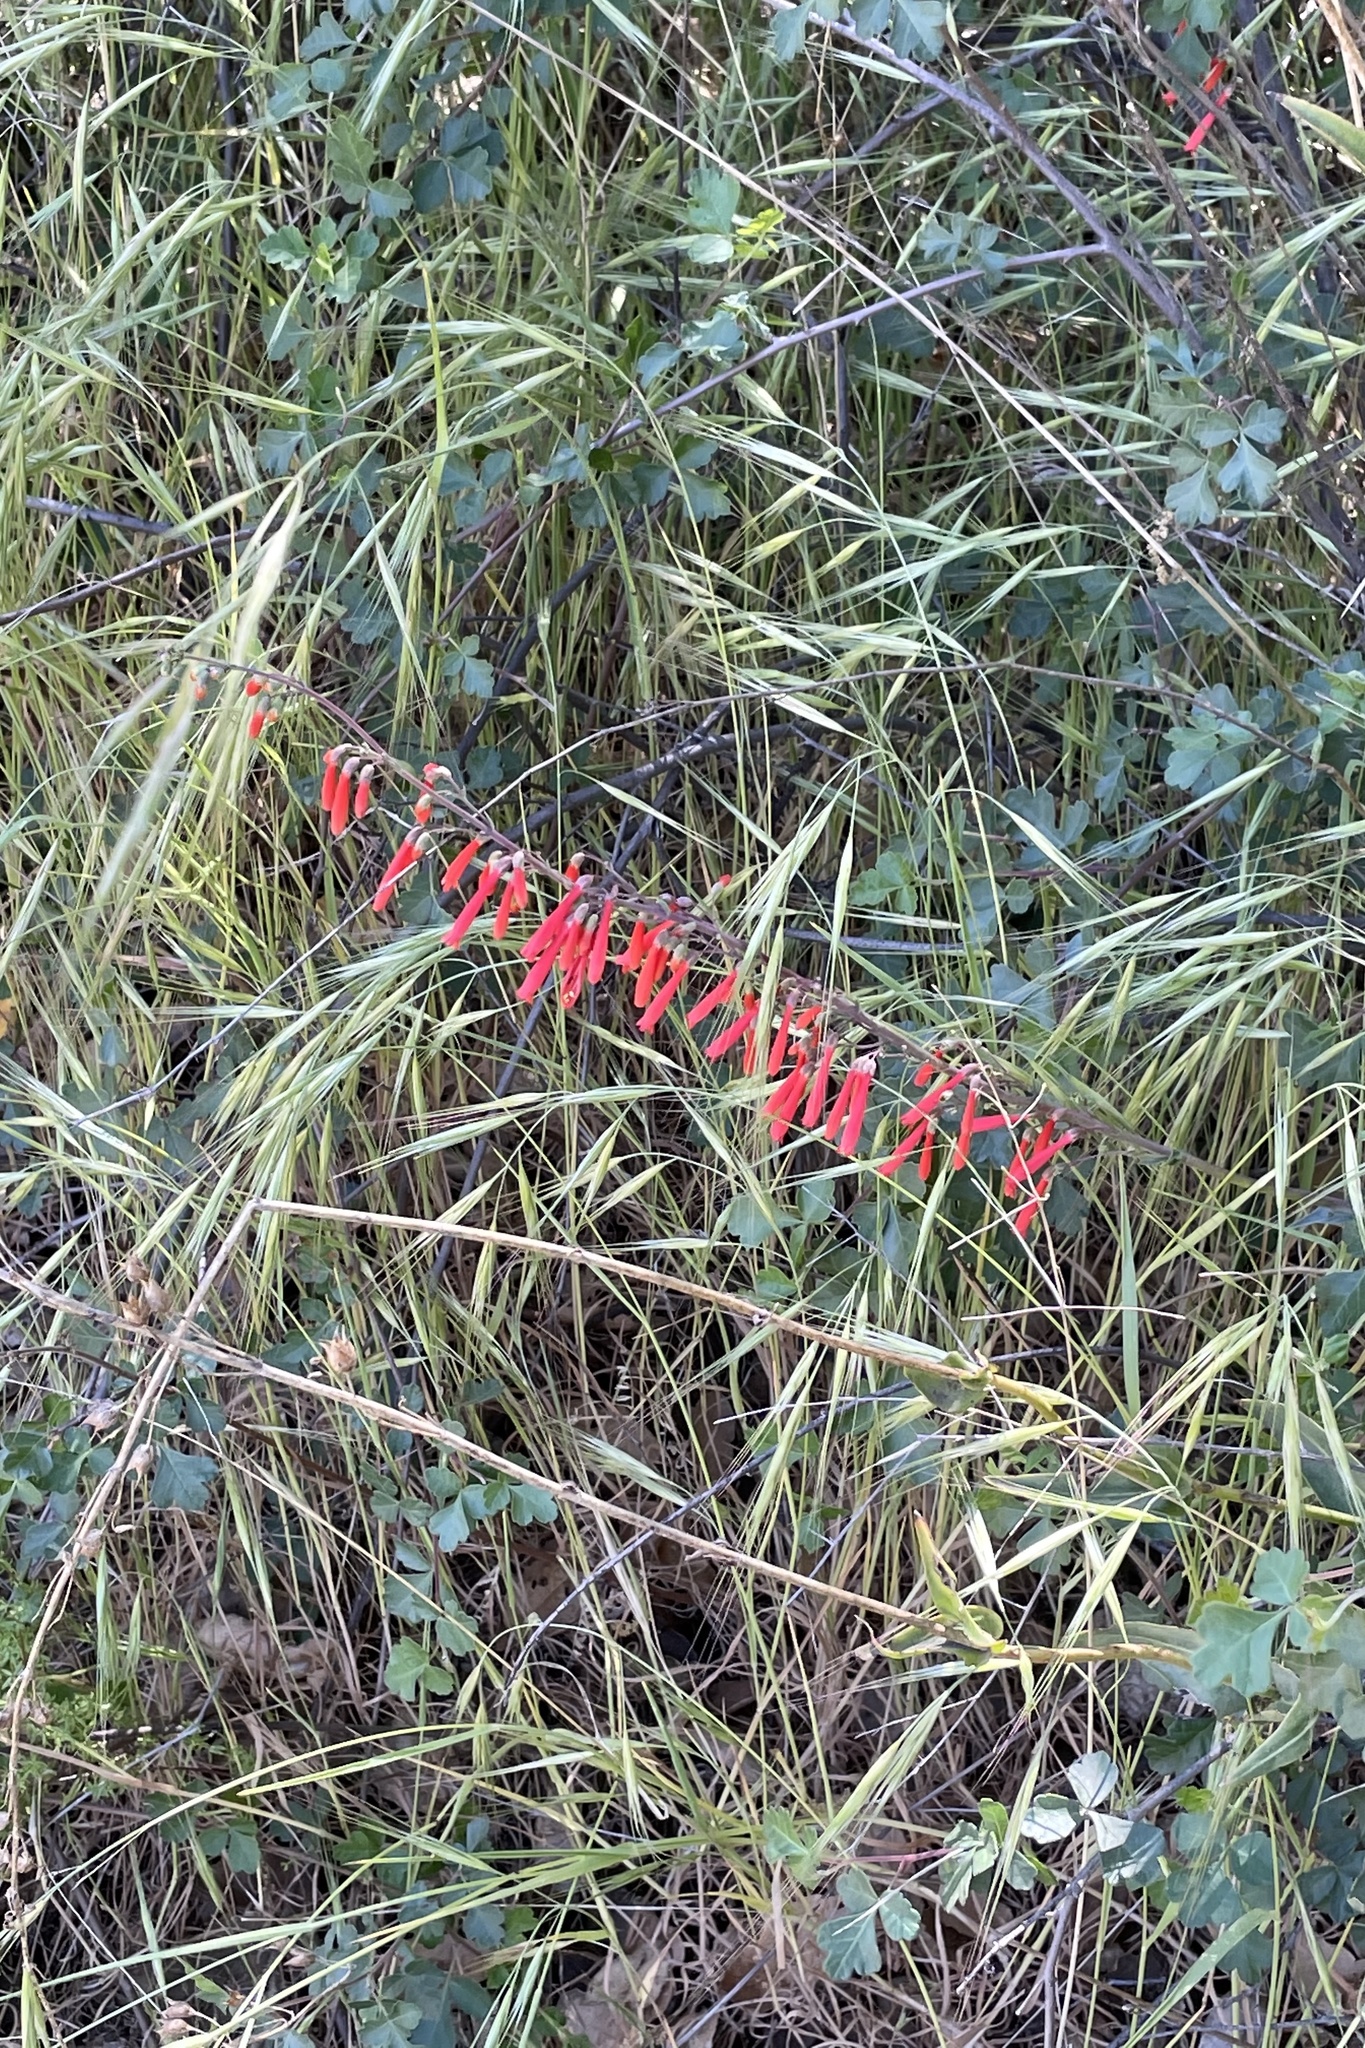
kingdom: Plantae
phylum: Tracheophyta
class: Magnoliopsida
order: Lamiales
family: Plantaginaceae
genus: Penstemon
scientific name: Penstemon centranthifolius
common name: Scarlet bugler
